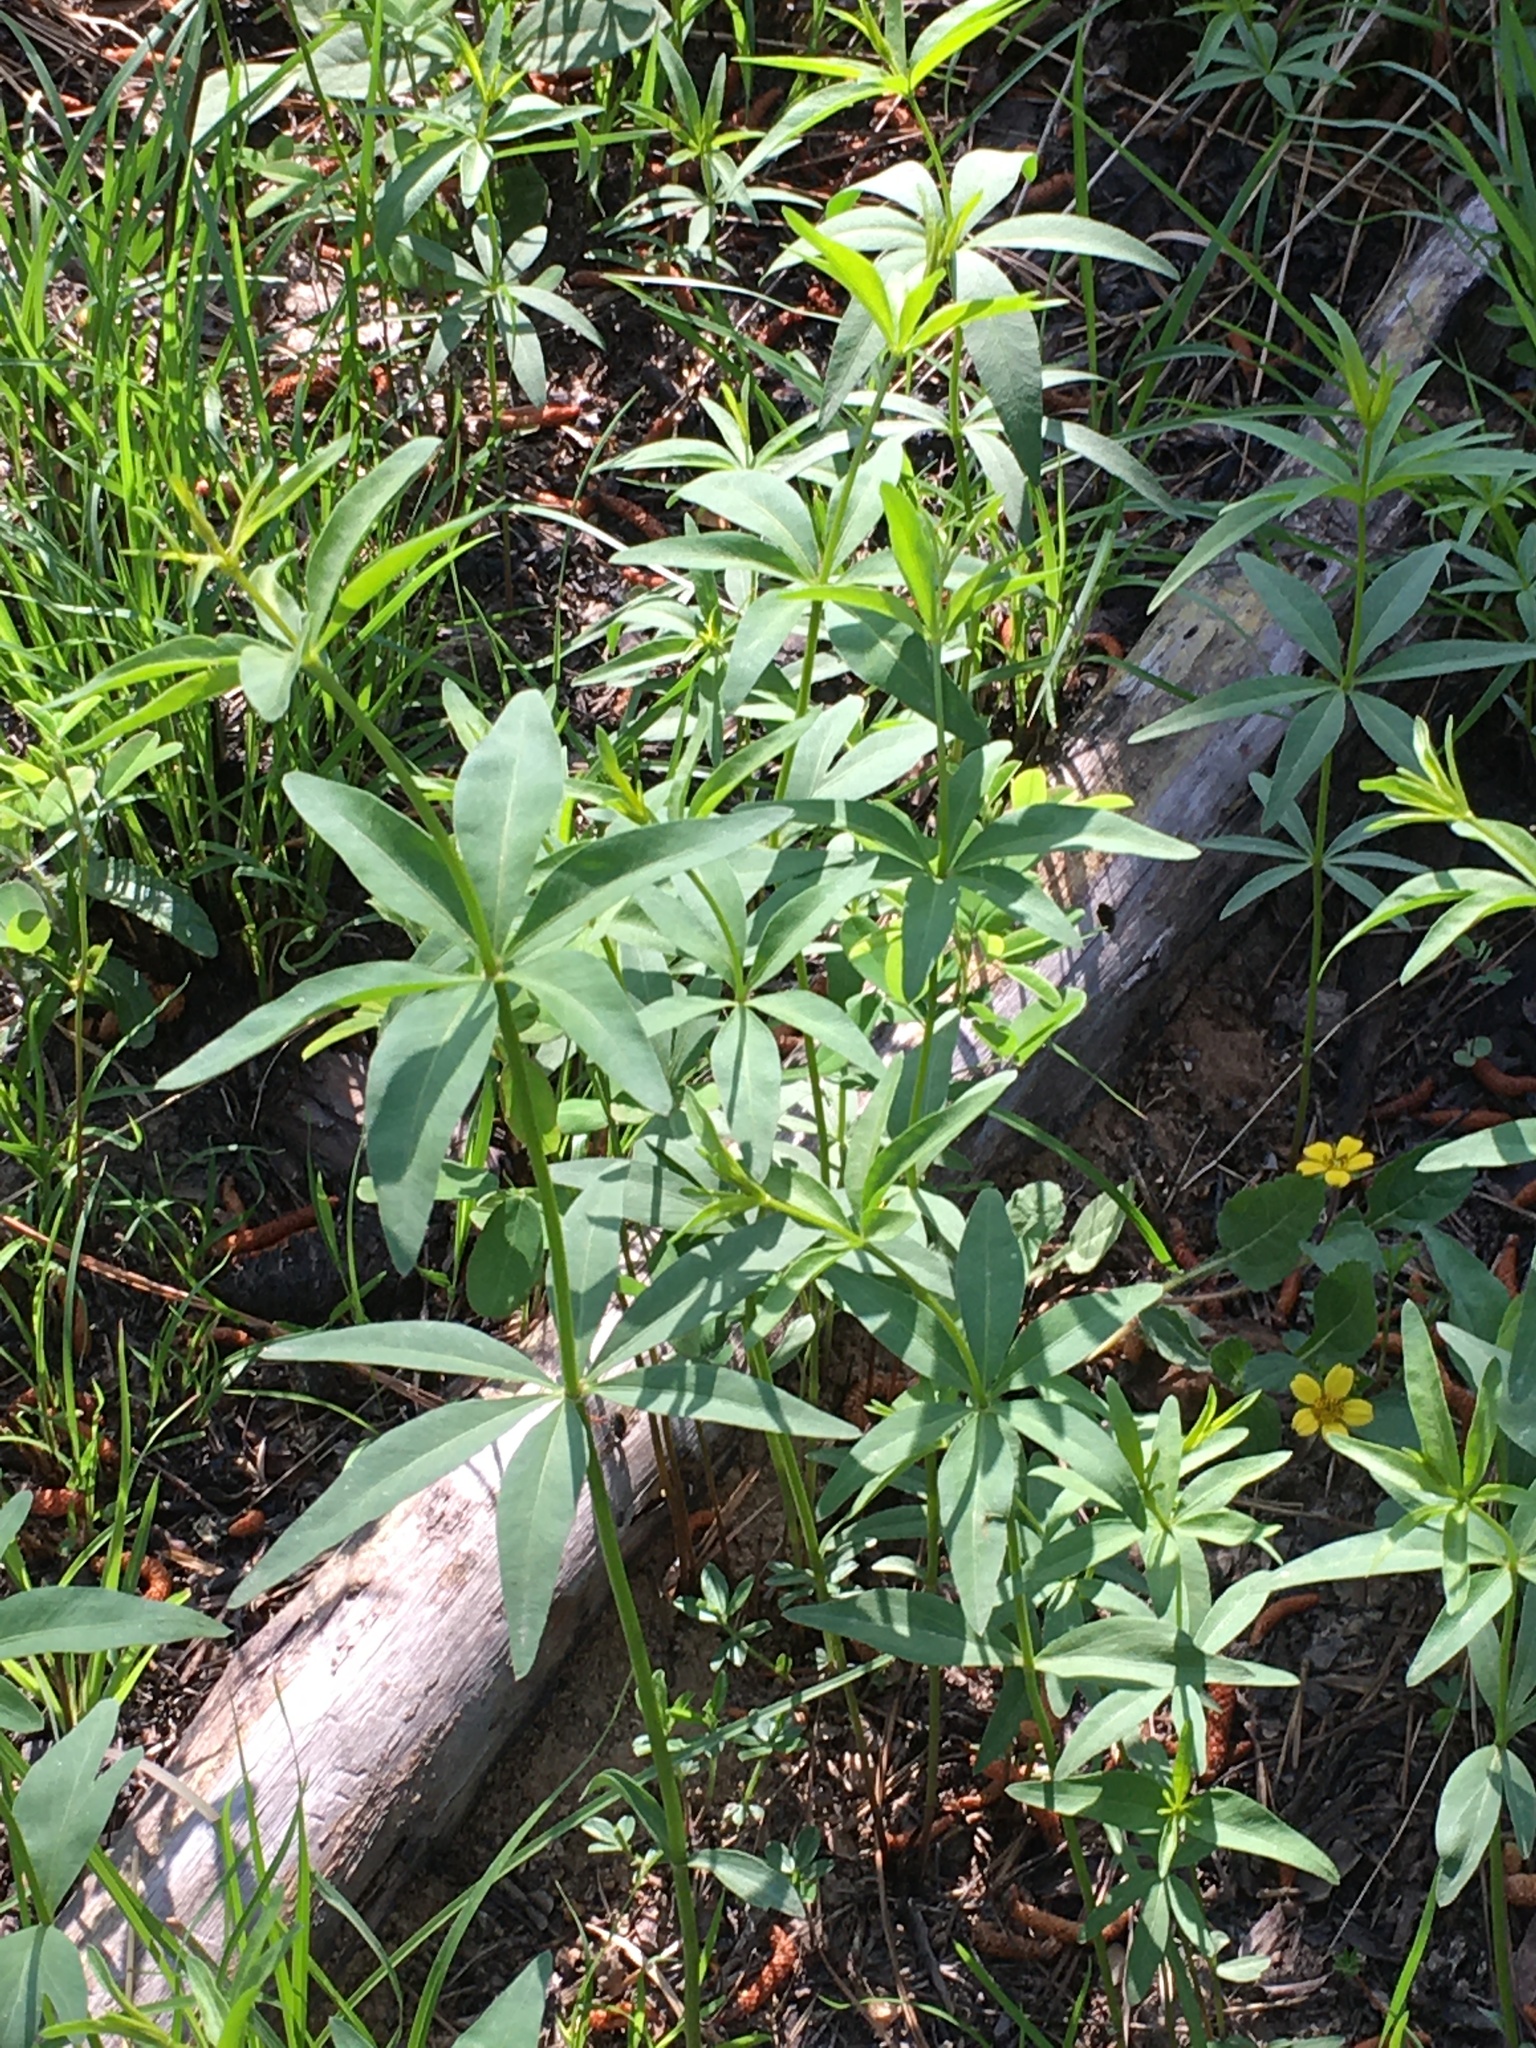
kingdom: Plantae
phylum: Tracheophyta
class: Magnoliopsida
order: Asterales
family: Asteraceae
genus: Coreopsis
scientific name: Coreopsis major
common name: Forest tickseed
